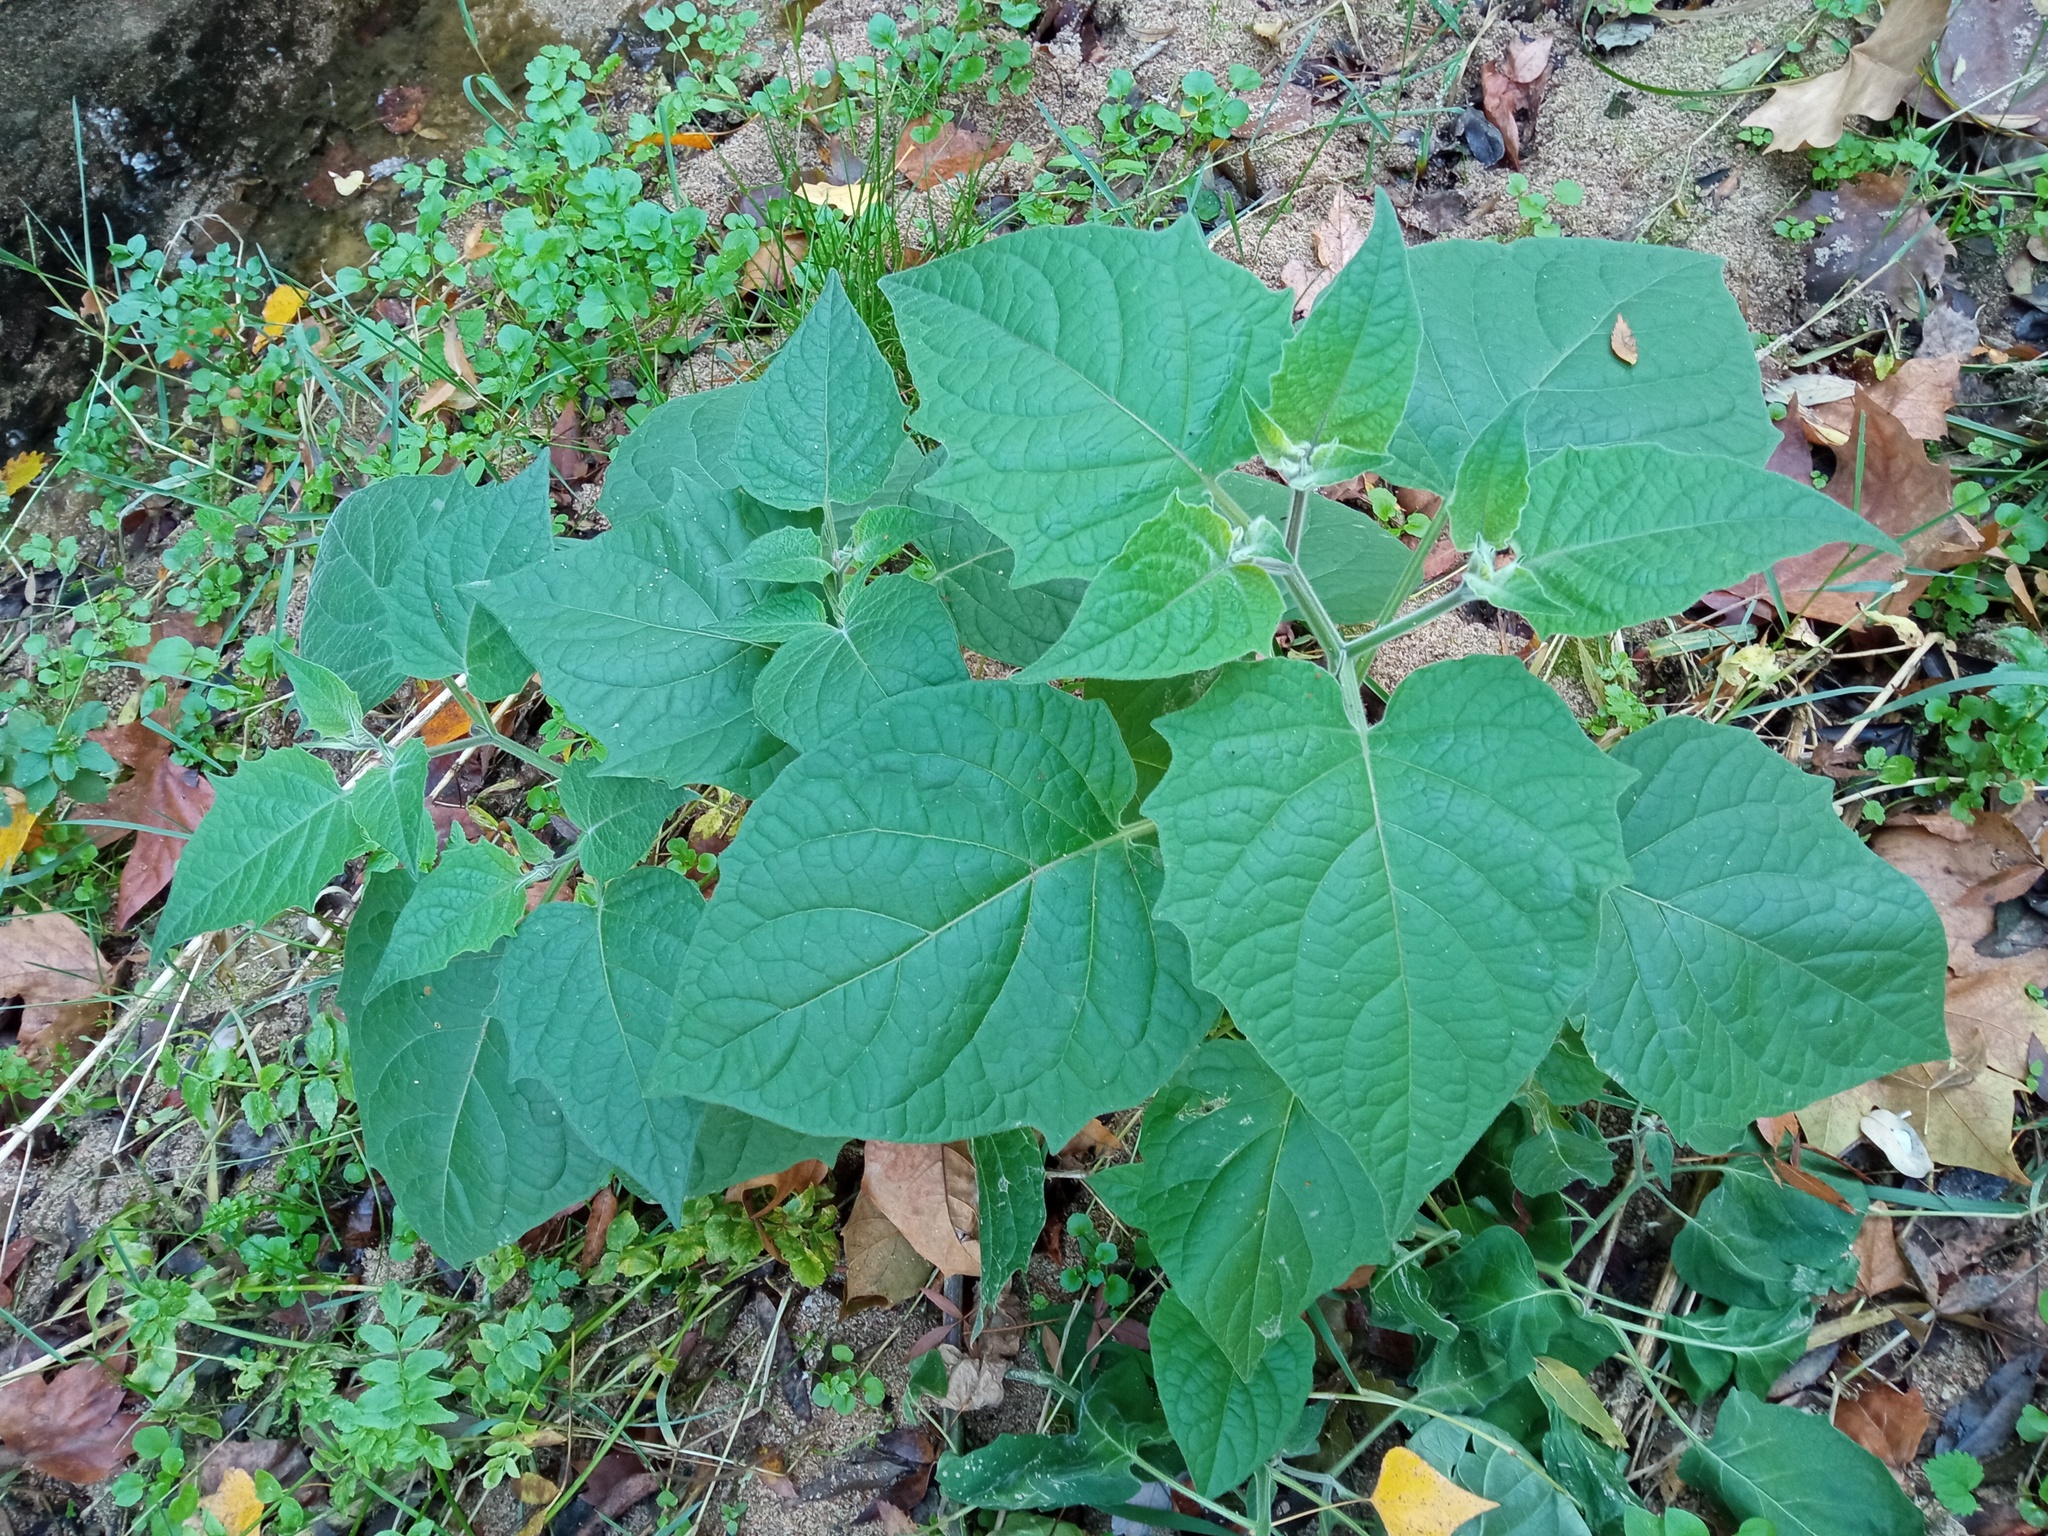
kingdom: Plantae
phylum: Tracheophyta
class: Magnoliopsida
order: Solanales
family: Solanaceae
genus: Physalis
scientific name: Physalis peruviana
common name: Cape-gooseberry
